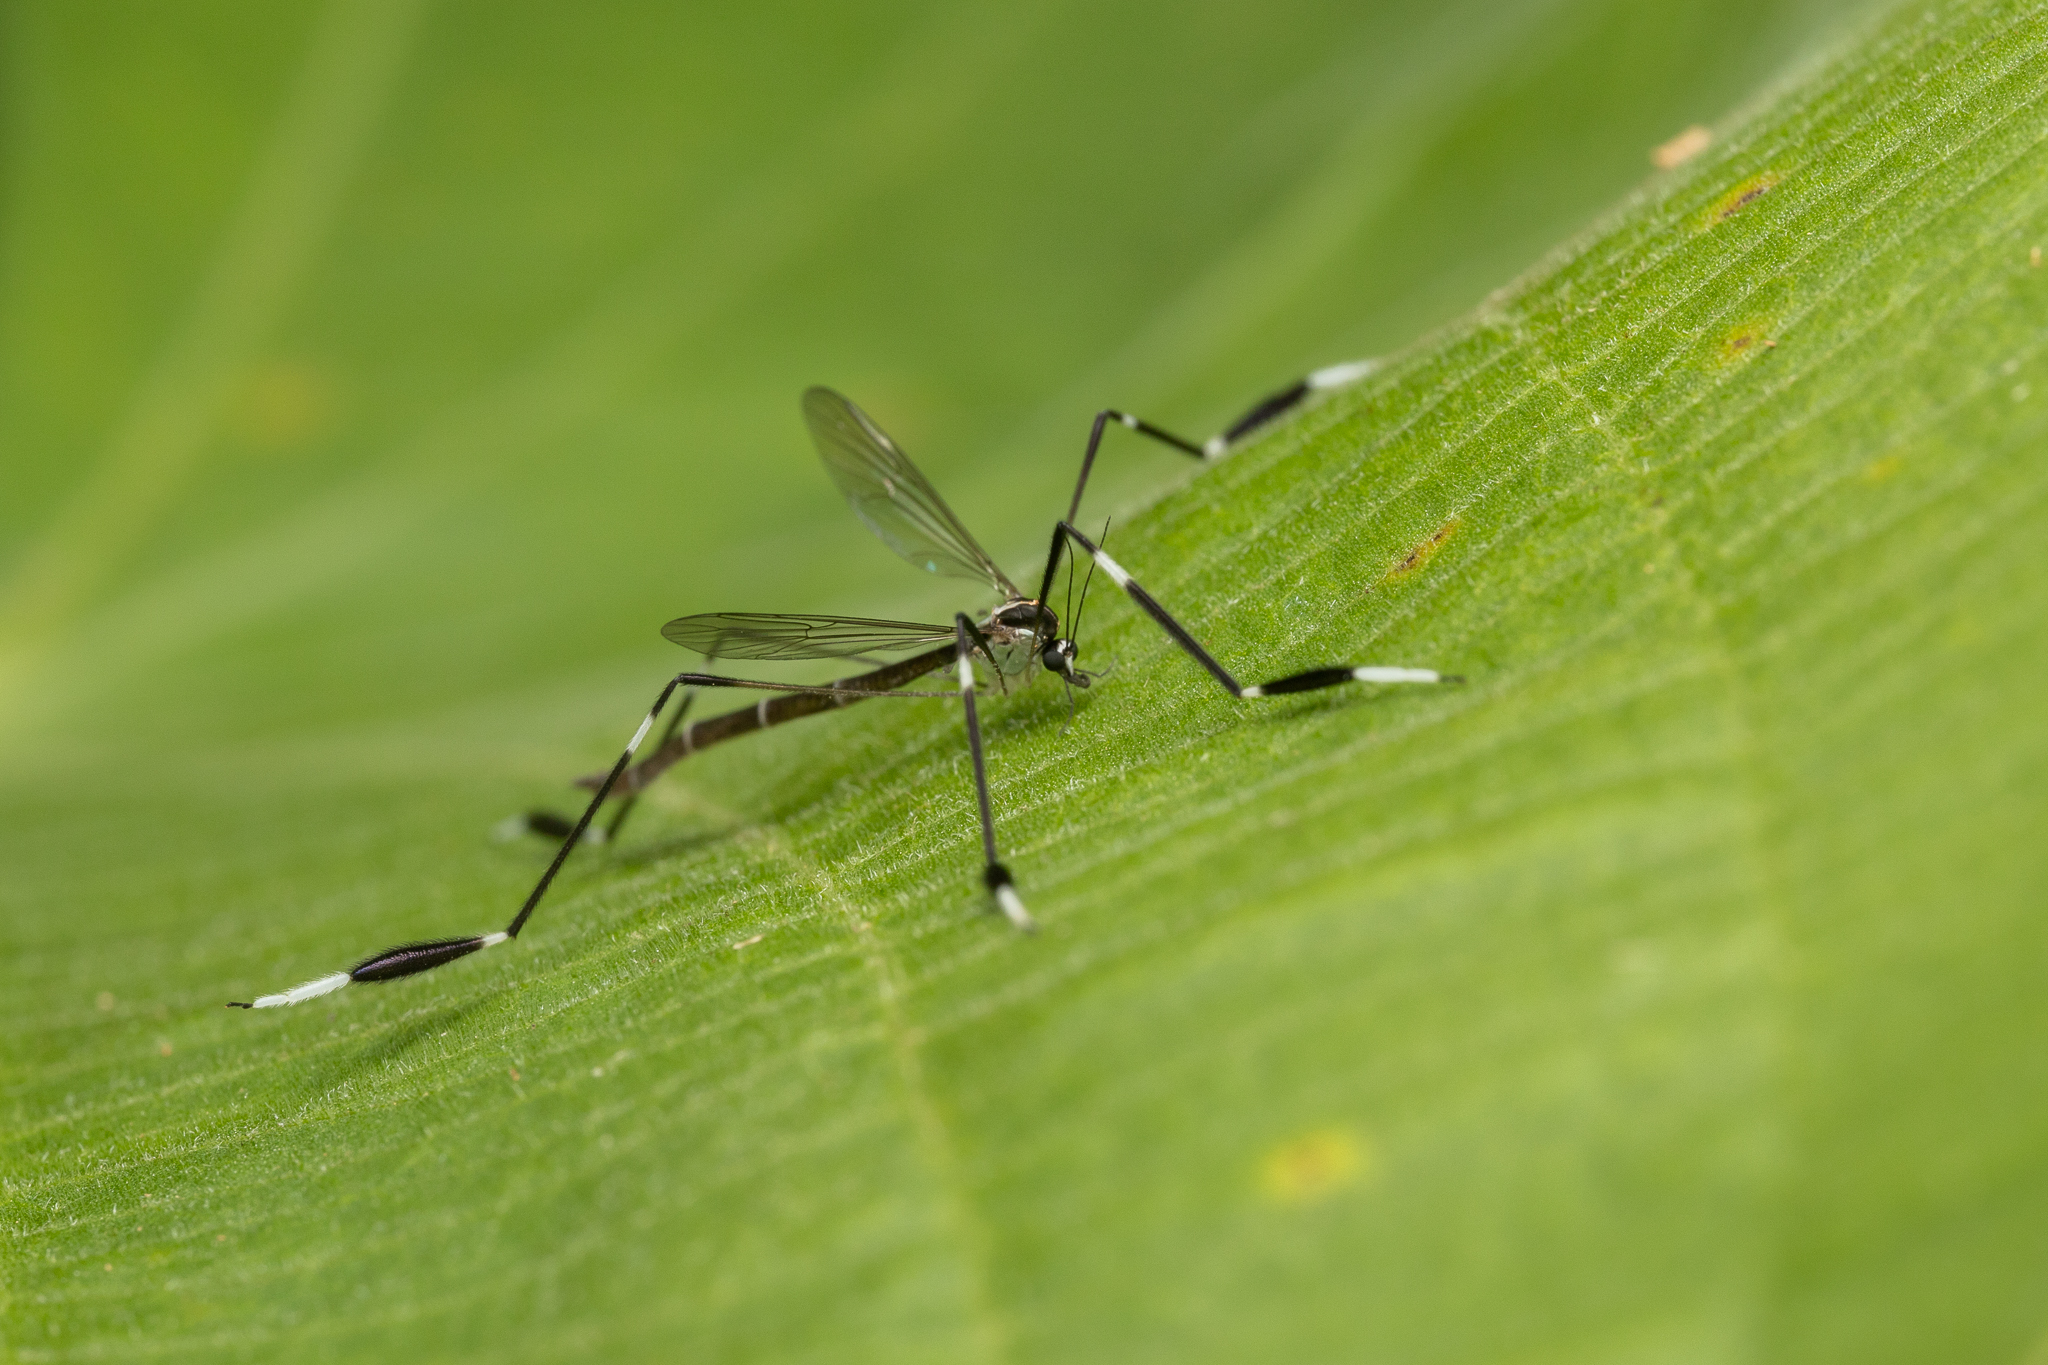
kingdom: Animalia
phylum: Arthropoda
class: Insecta
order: Diptera
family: Ptychopteridae
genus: Bittacomorpha
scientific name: Bittacomorpha clavipes
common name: Eastern phantom crane fly
